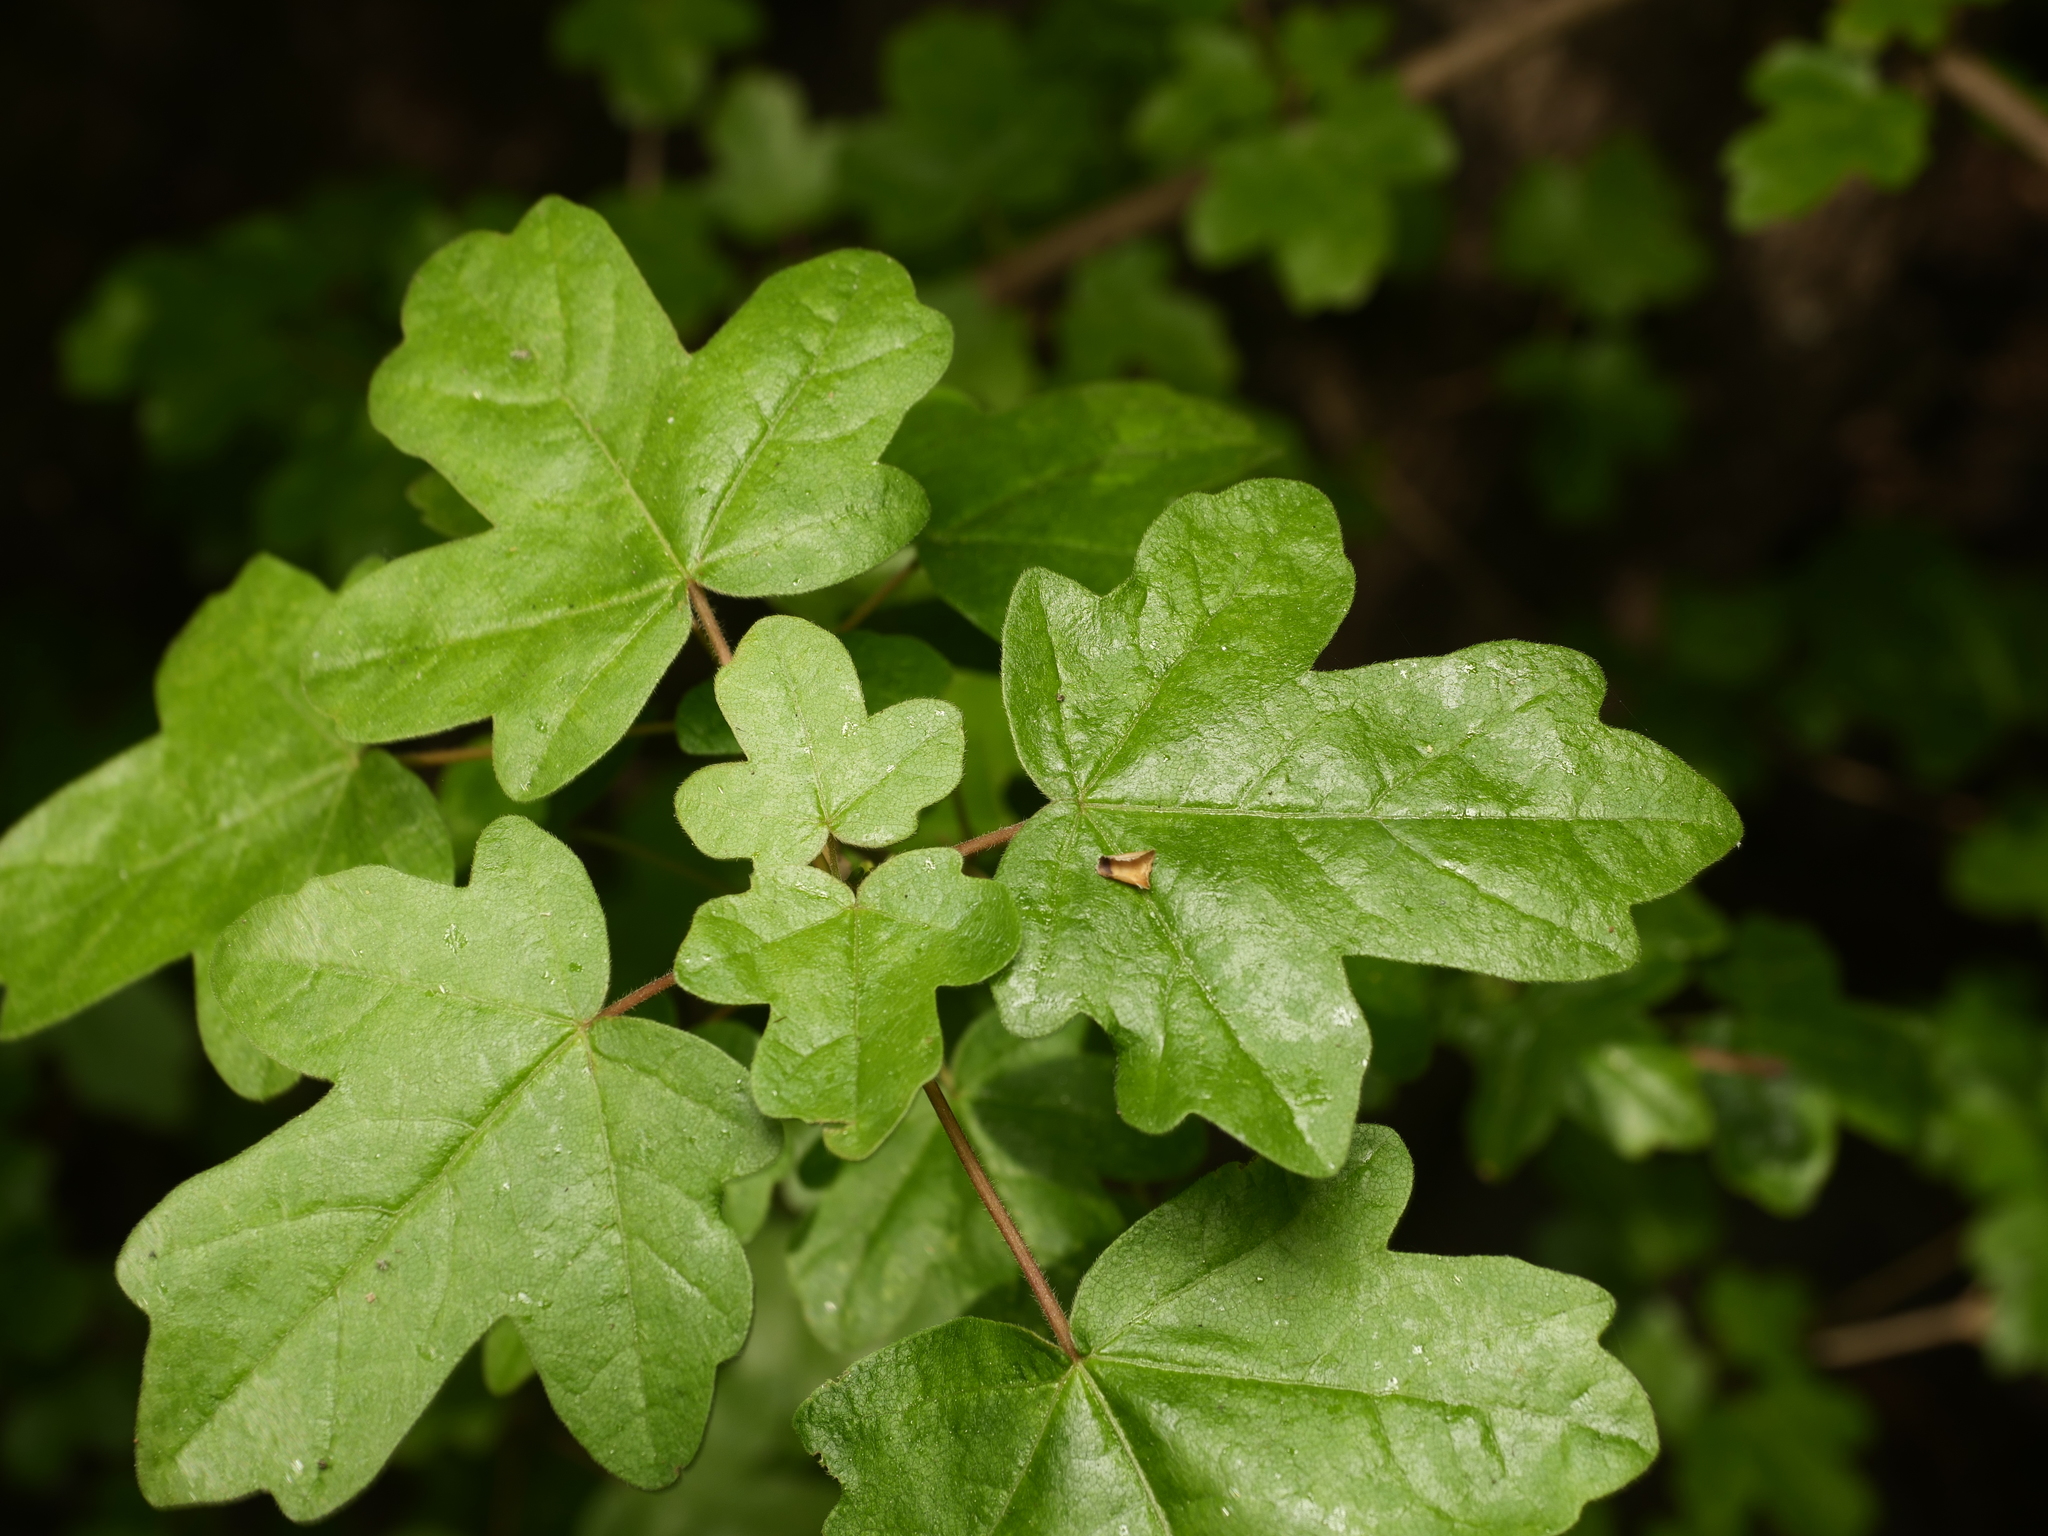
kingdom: Plantae
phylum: Tracheophyta
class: Magnoliopsida
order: Sapindales
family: Sapindaceae
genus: Acer
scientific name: Acer campestre
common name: Field maple
